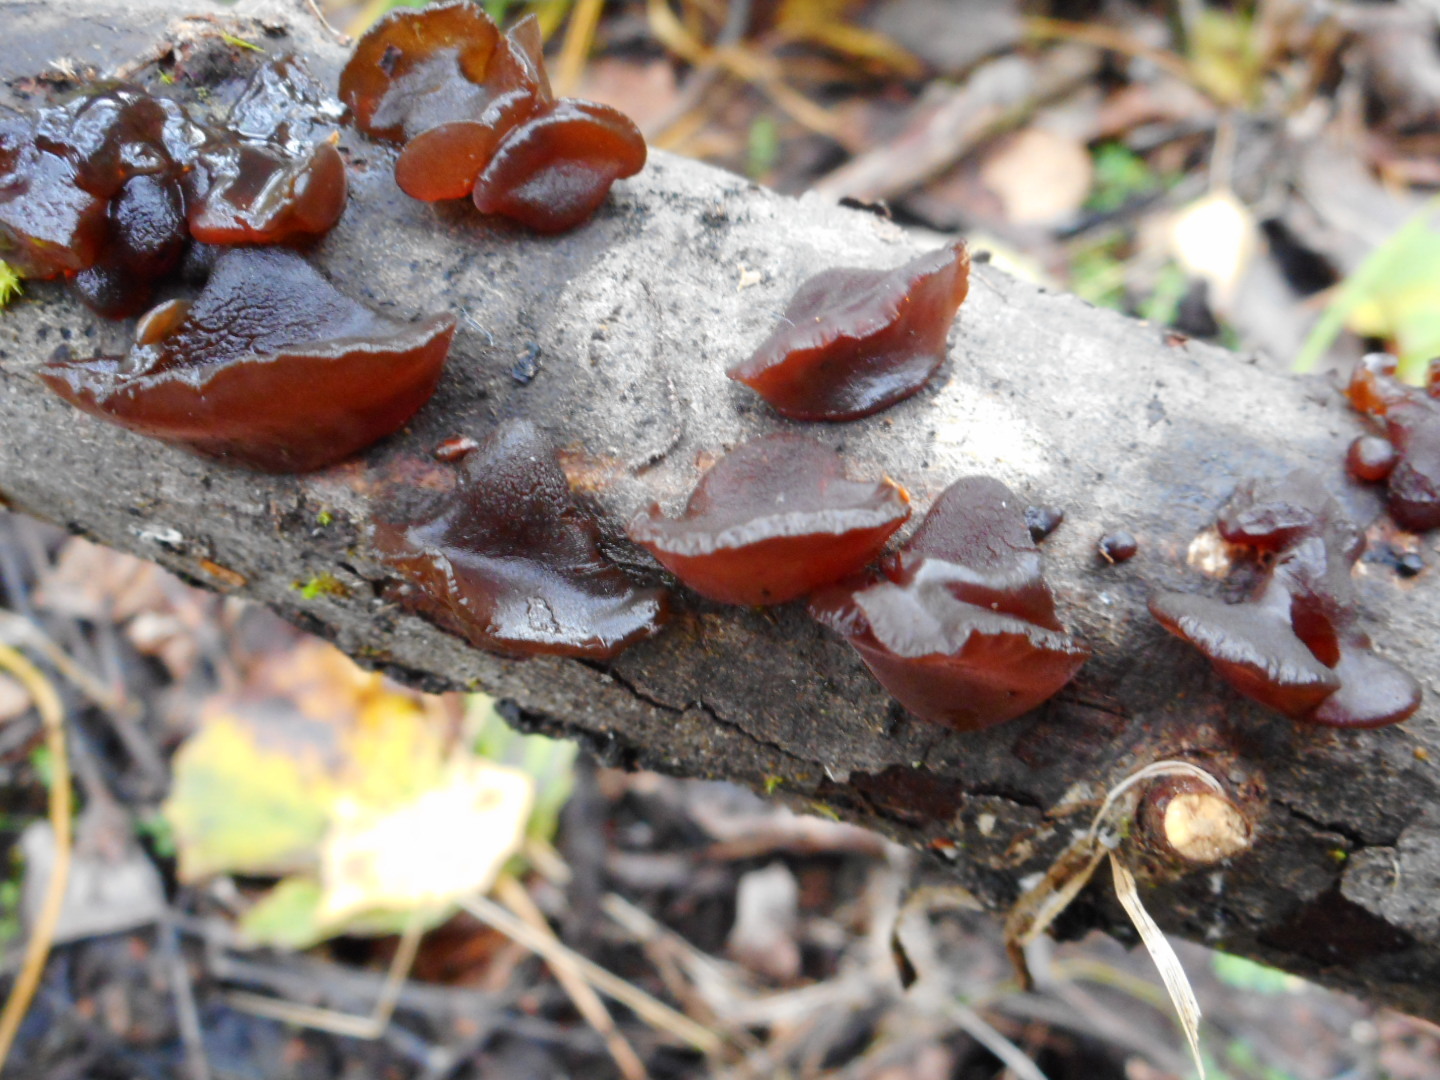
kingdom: Fungi
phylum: Basidiomycota
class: Agaricomycetes
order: Auriculariales
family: Auriculariaceae
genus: Exidia
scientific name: Exidia recisa
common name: Amber jelly
